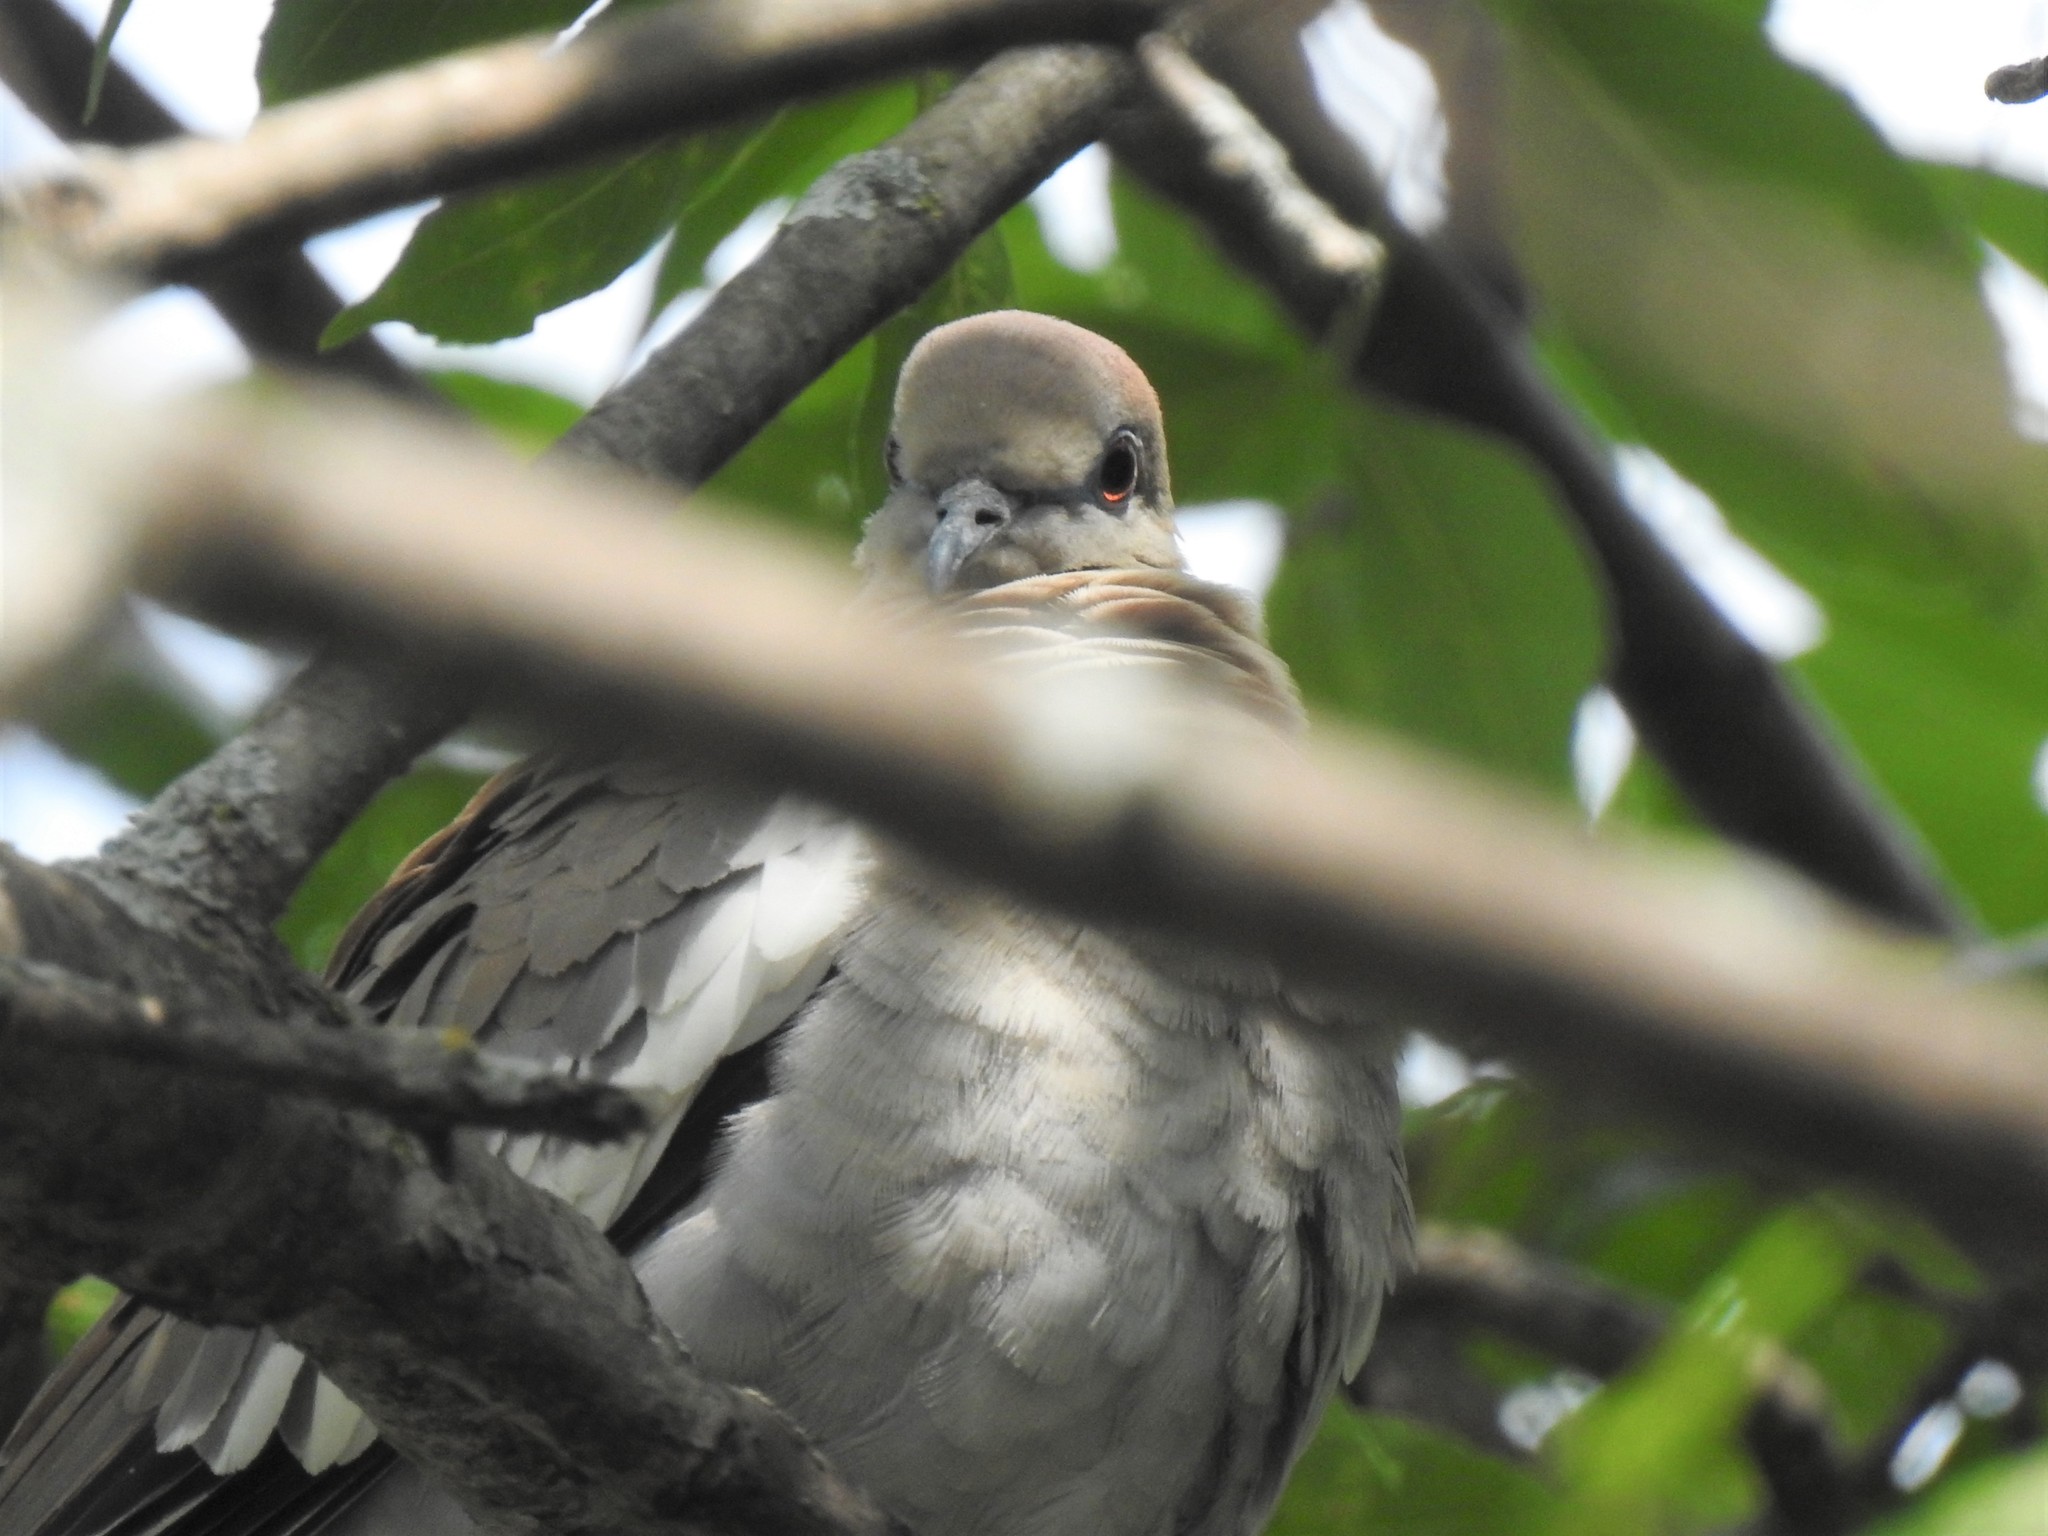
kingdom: Animalia
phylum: Chordata
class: Aves
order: Columbiformes
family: Columbidae
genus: Zenaida
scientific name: Zenaida asiatica
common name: White-winged dove
